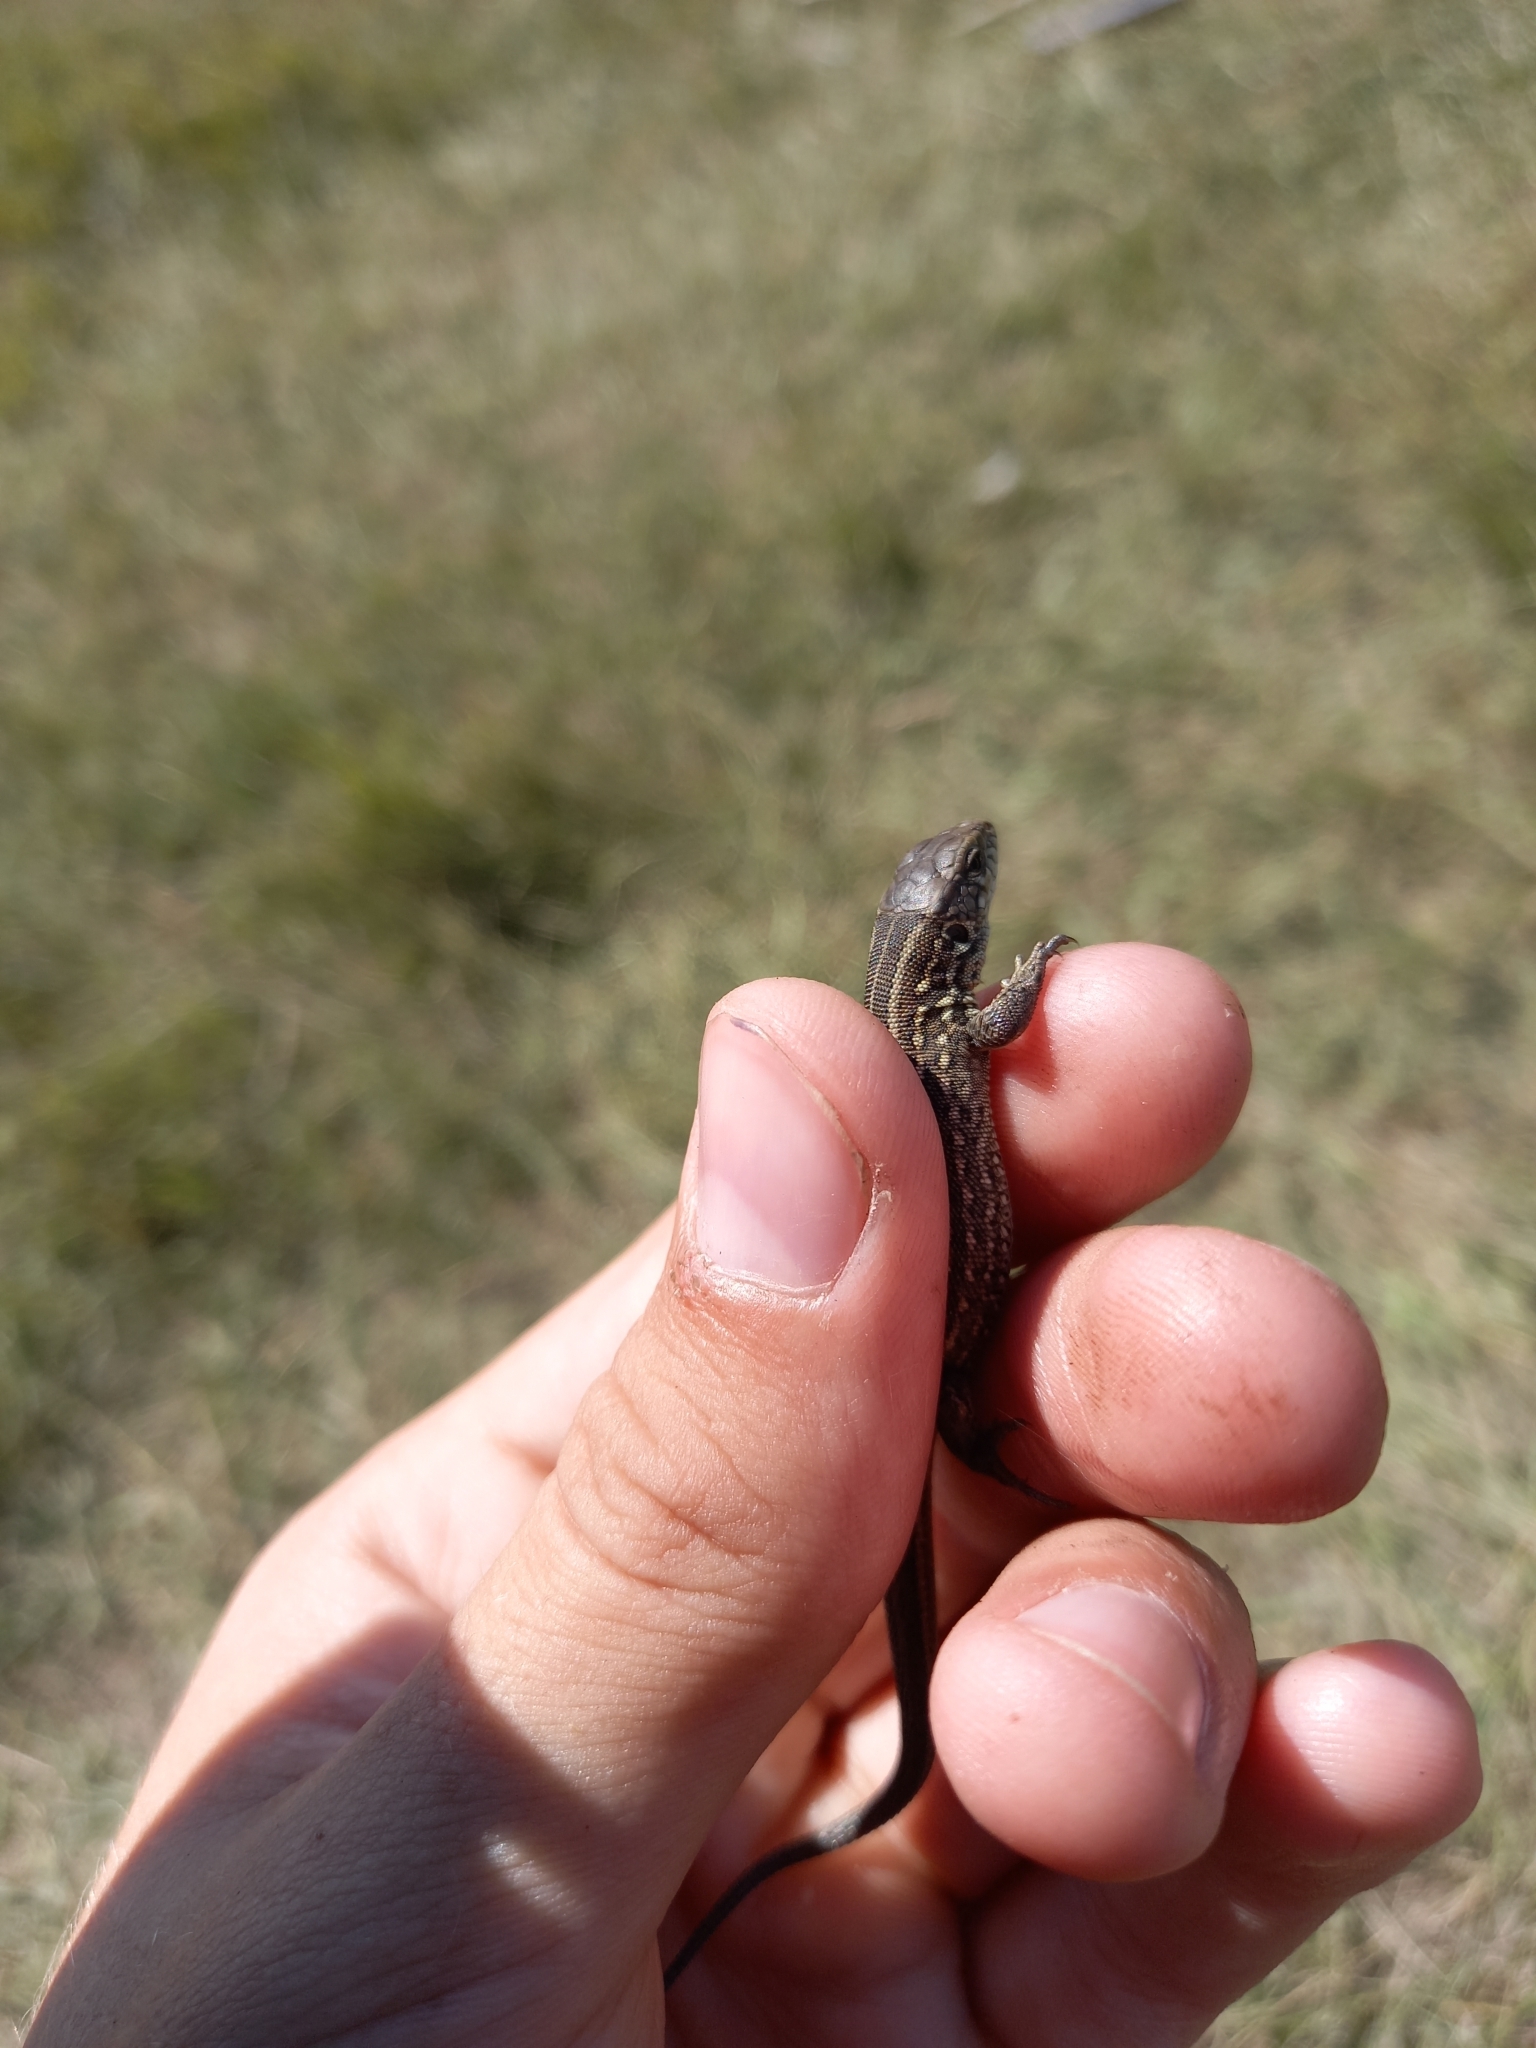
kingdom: Animalia
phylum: Chordata
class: Squamata
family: Lacertidae
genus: Lacerta
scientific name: Lacerta agilis
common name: Sand lizard
